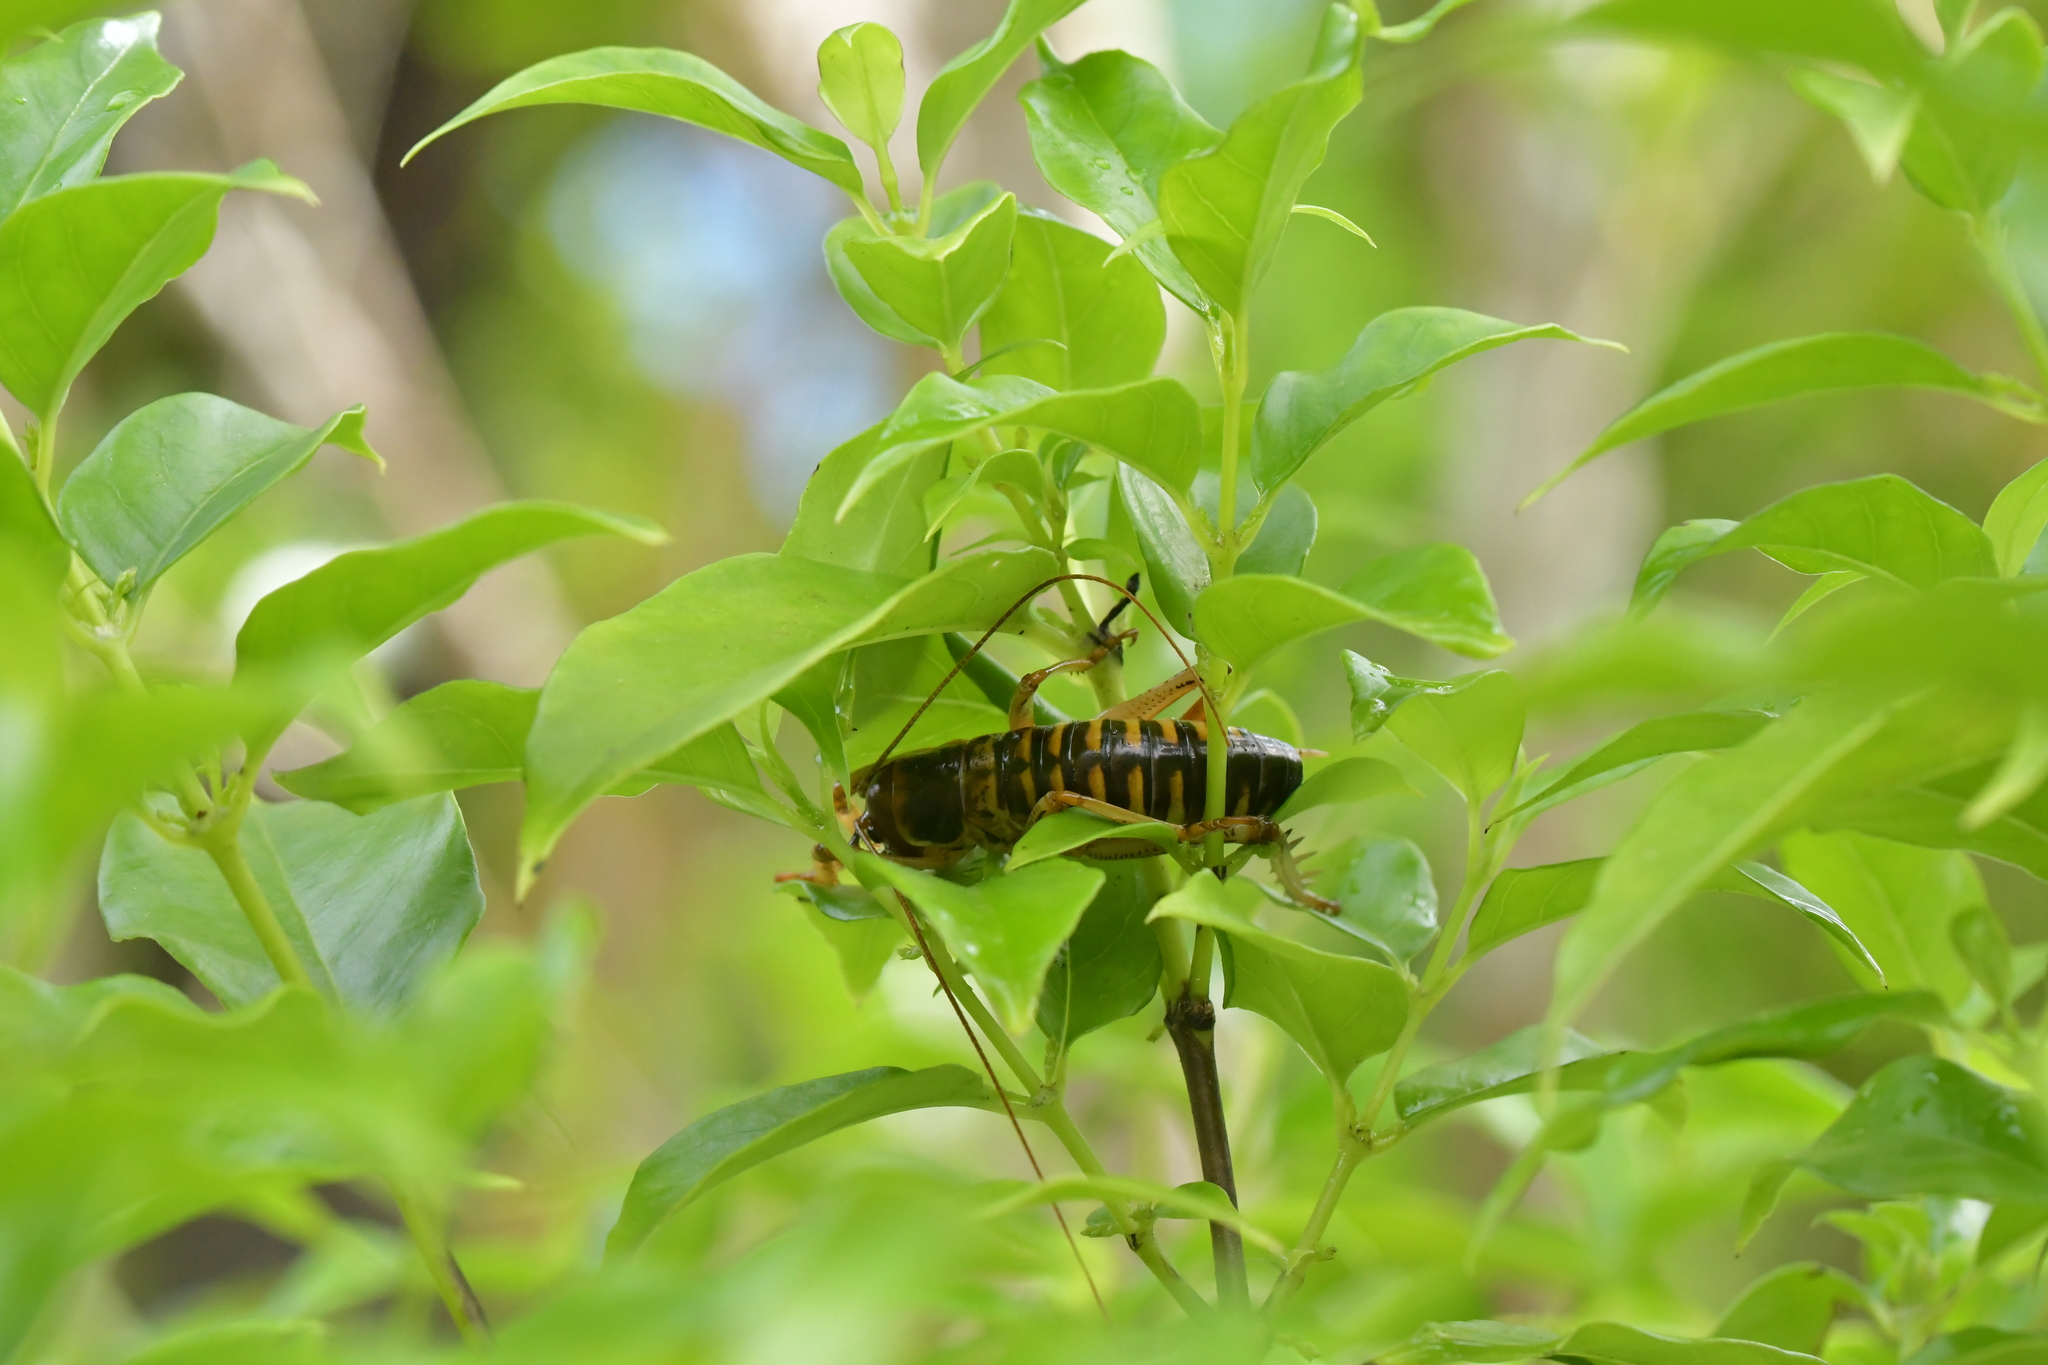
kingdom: Animalia
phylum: Arthropoda
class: Insecta
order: Orthoptera
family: Anostostomatidae
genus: Hemideina
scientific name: Hemideina crassidens
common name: Wellington tree weta
